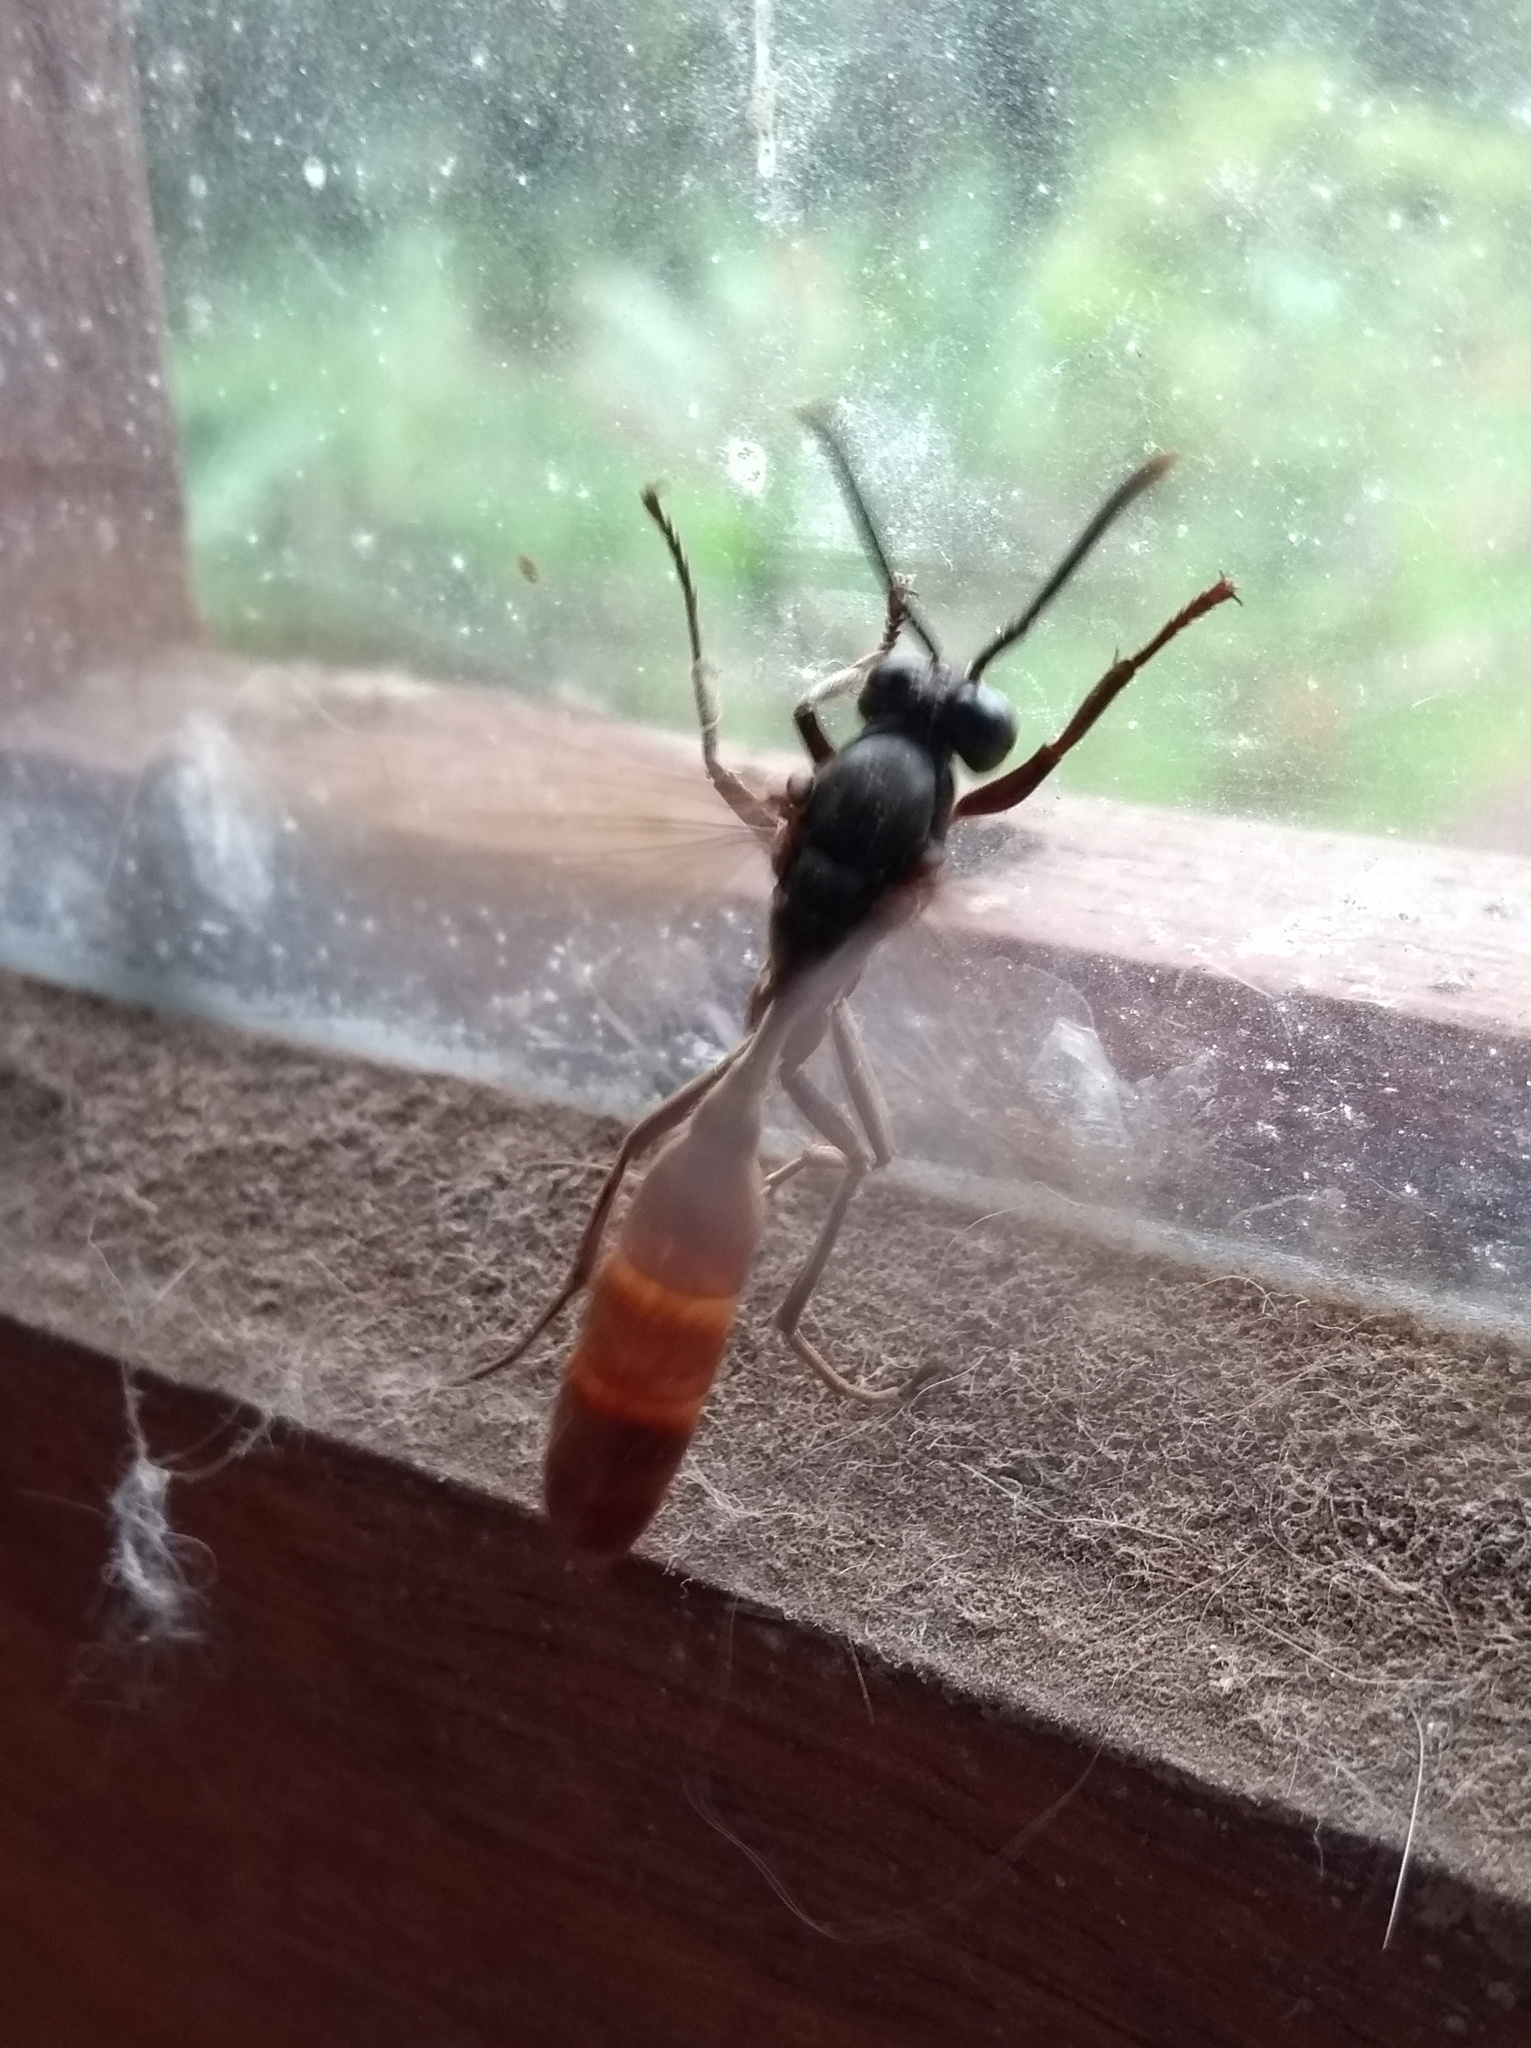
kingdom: Animalia
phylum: Arthropoda
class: Insecta
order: Hymenoptera
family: Vespidae
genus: Apoica
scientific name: Apoica thoracica
